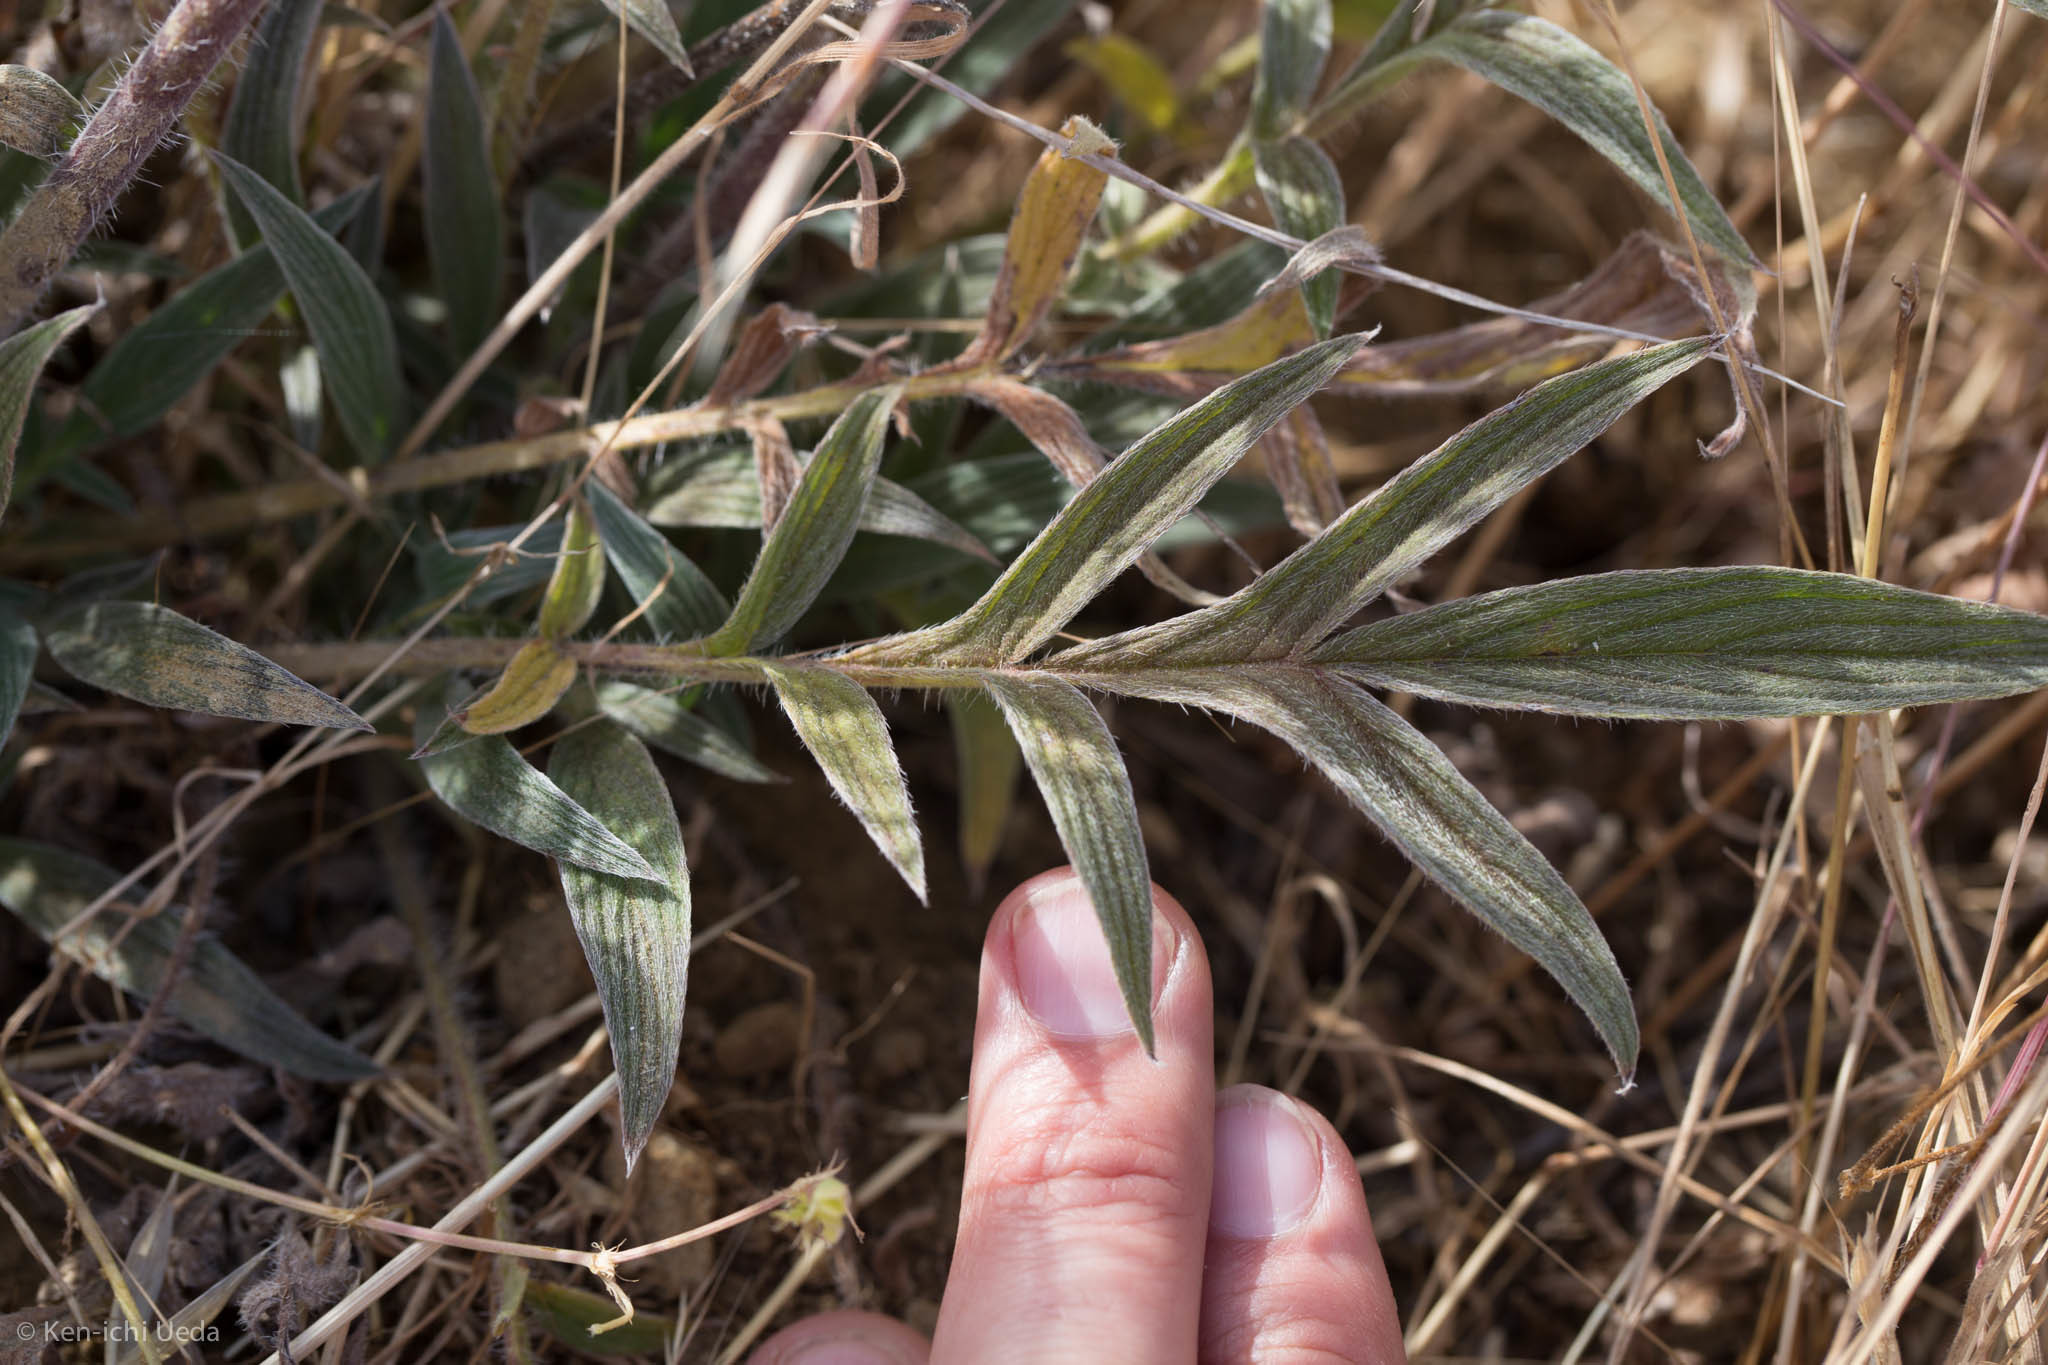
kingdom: Plantae
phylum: Tracheophyta
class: Magnoliopsida
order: Boraginales
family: Hydrophyllaceae
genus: Phacelia
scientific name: Phacelia imbricata
